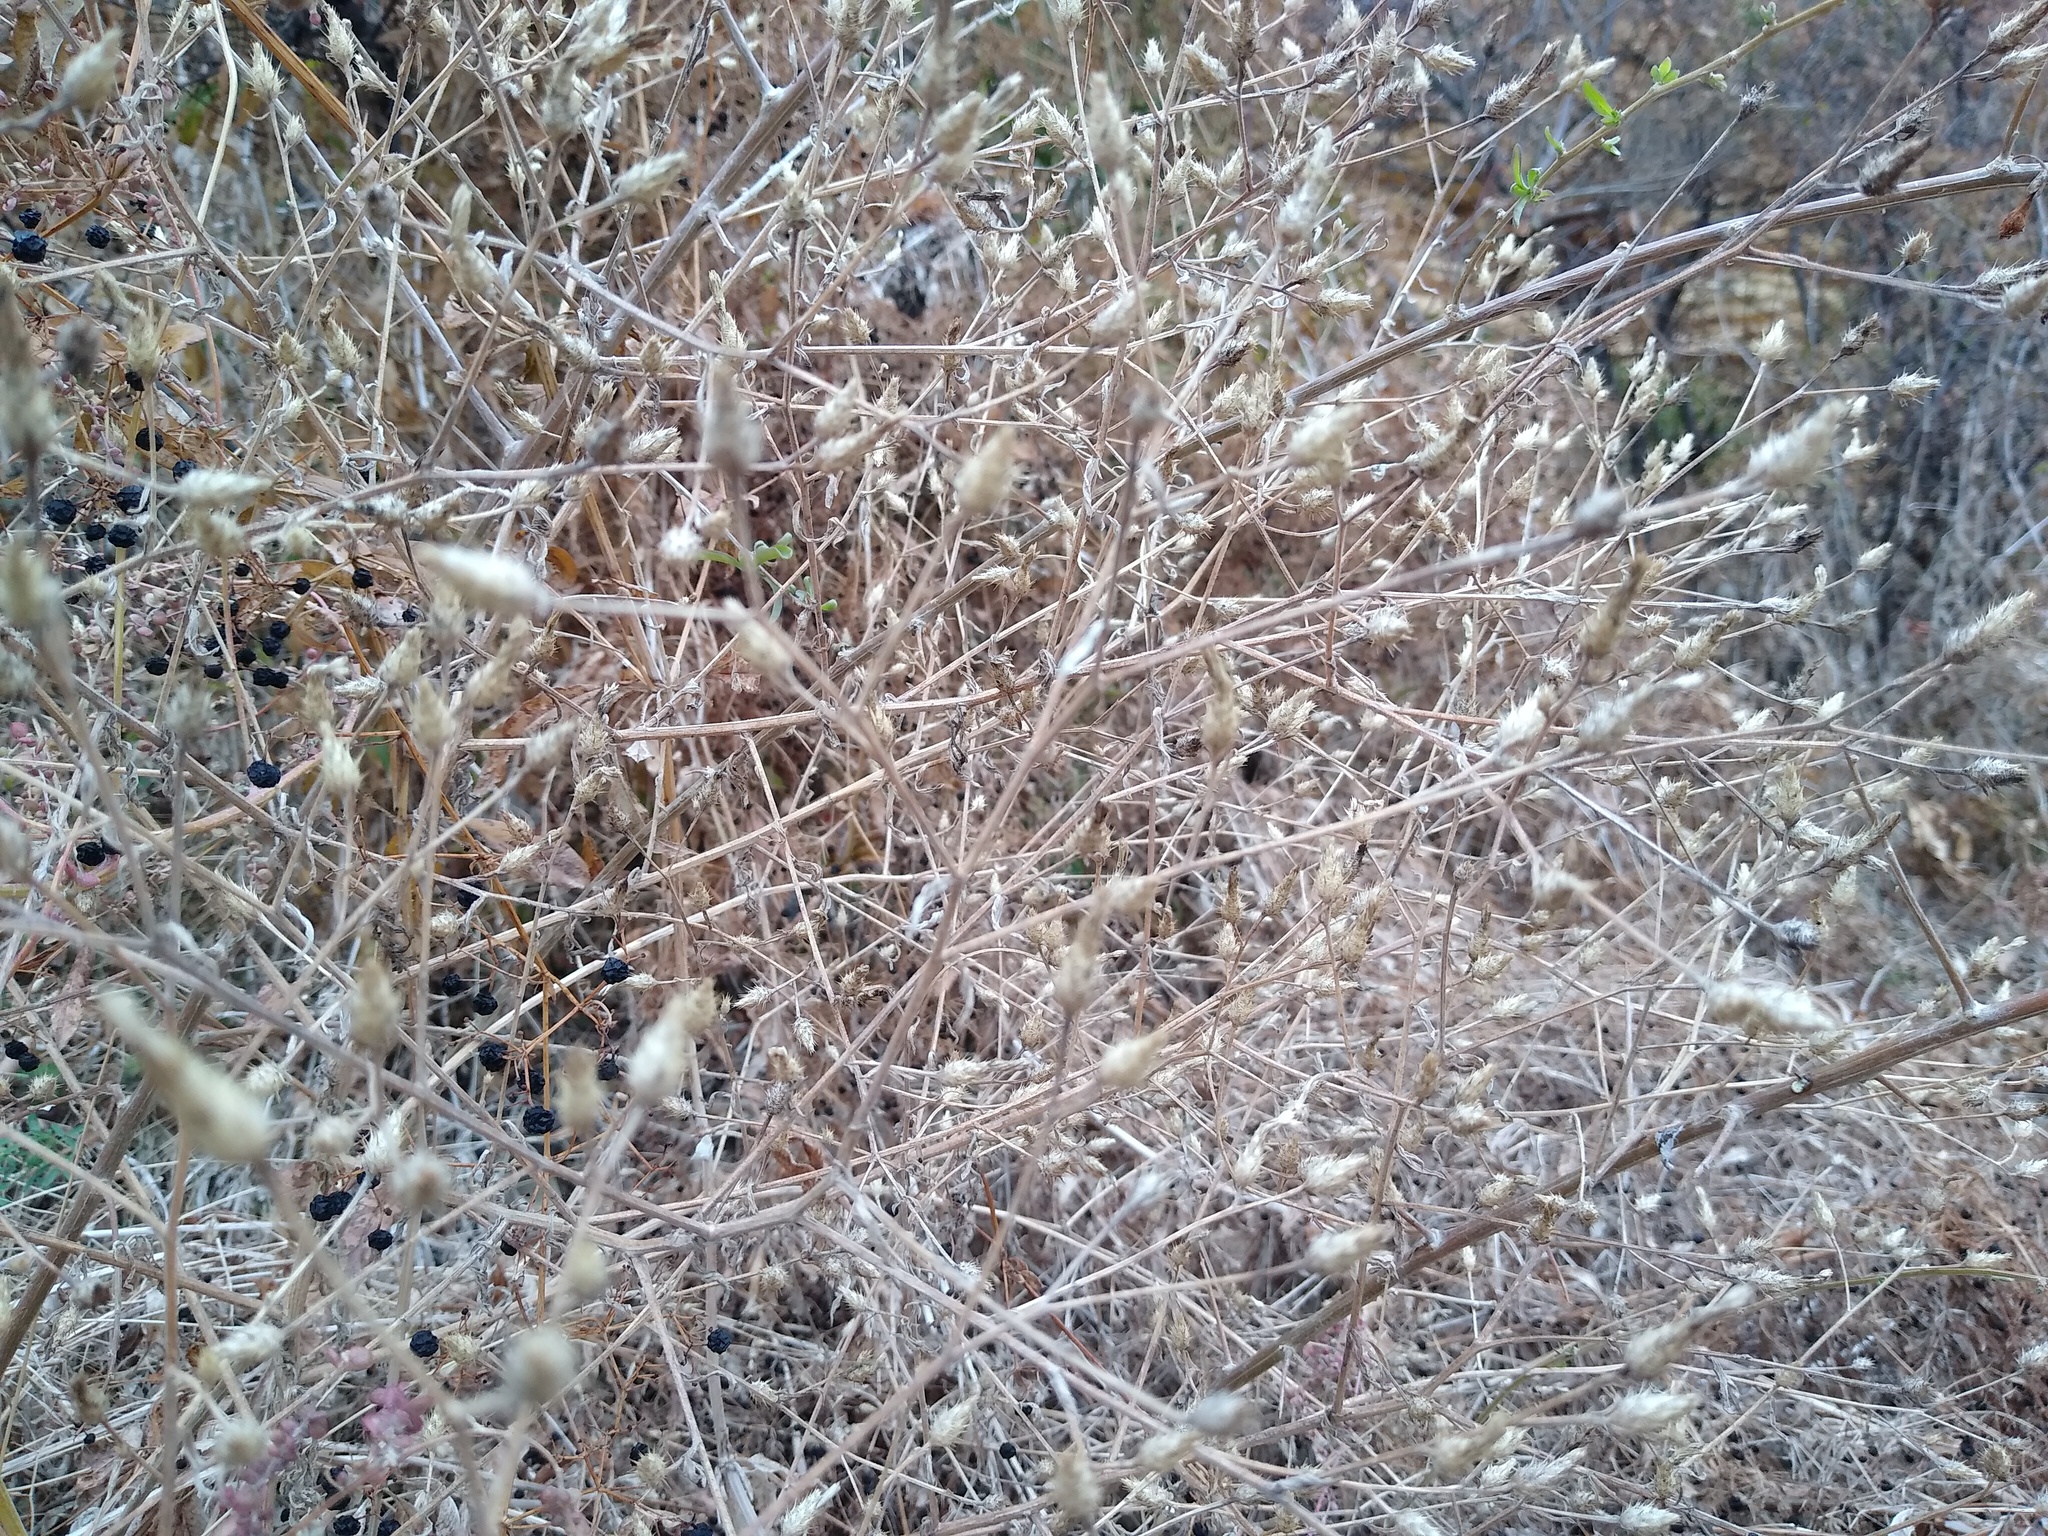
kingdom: Plantae
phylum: Tracheophyta
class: Magnoliopsida
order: Asterales
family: Asteraceae
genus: Centaurea
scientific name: Centaurea diffusa
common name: Diffuse knapweed
